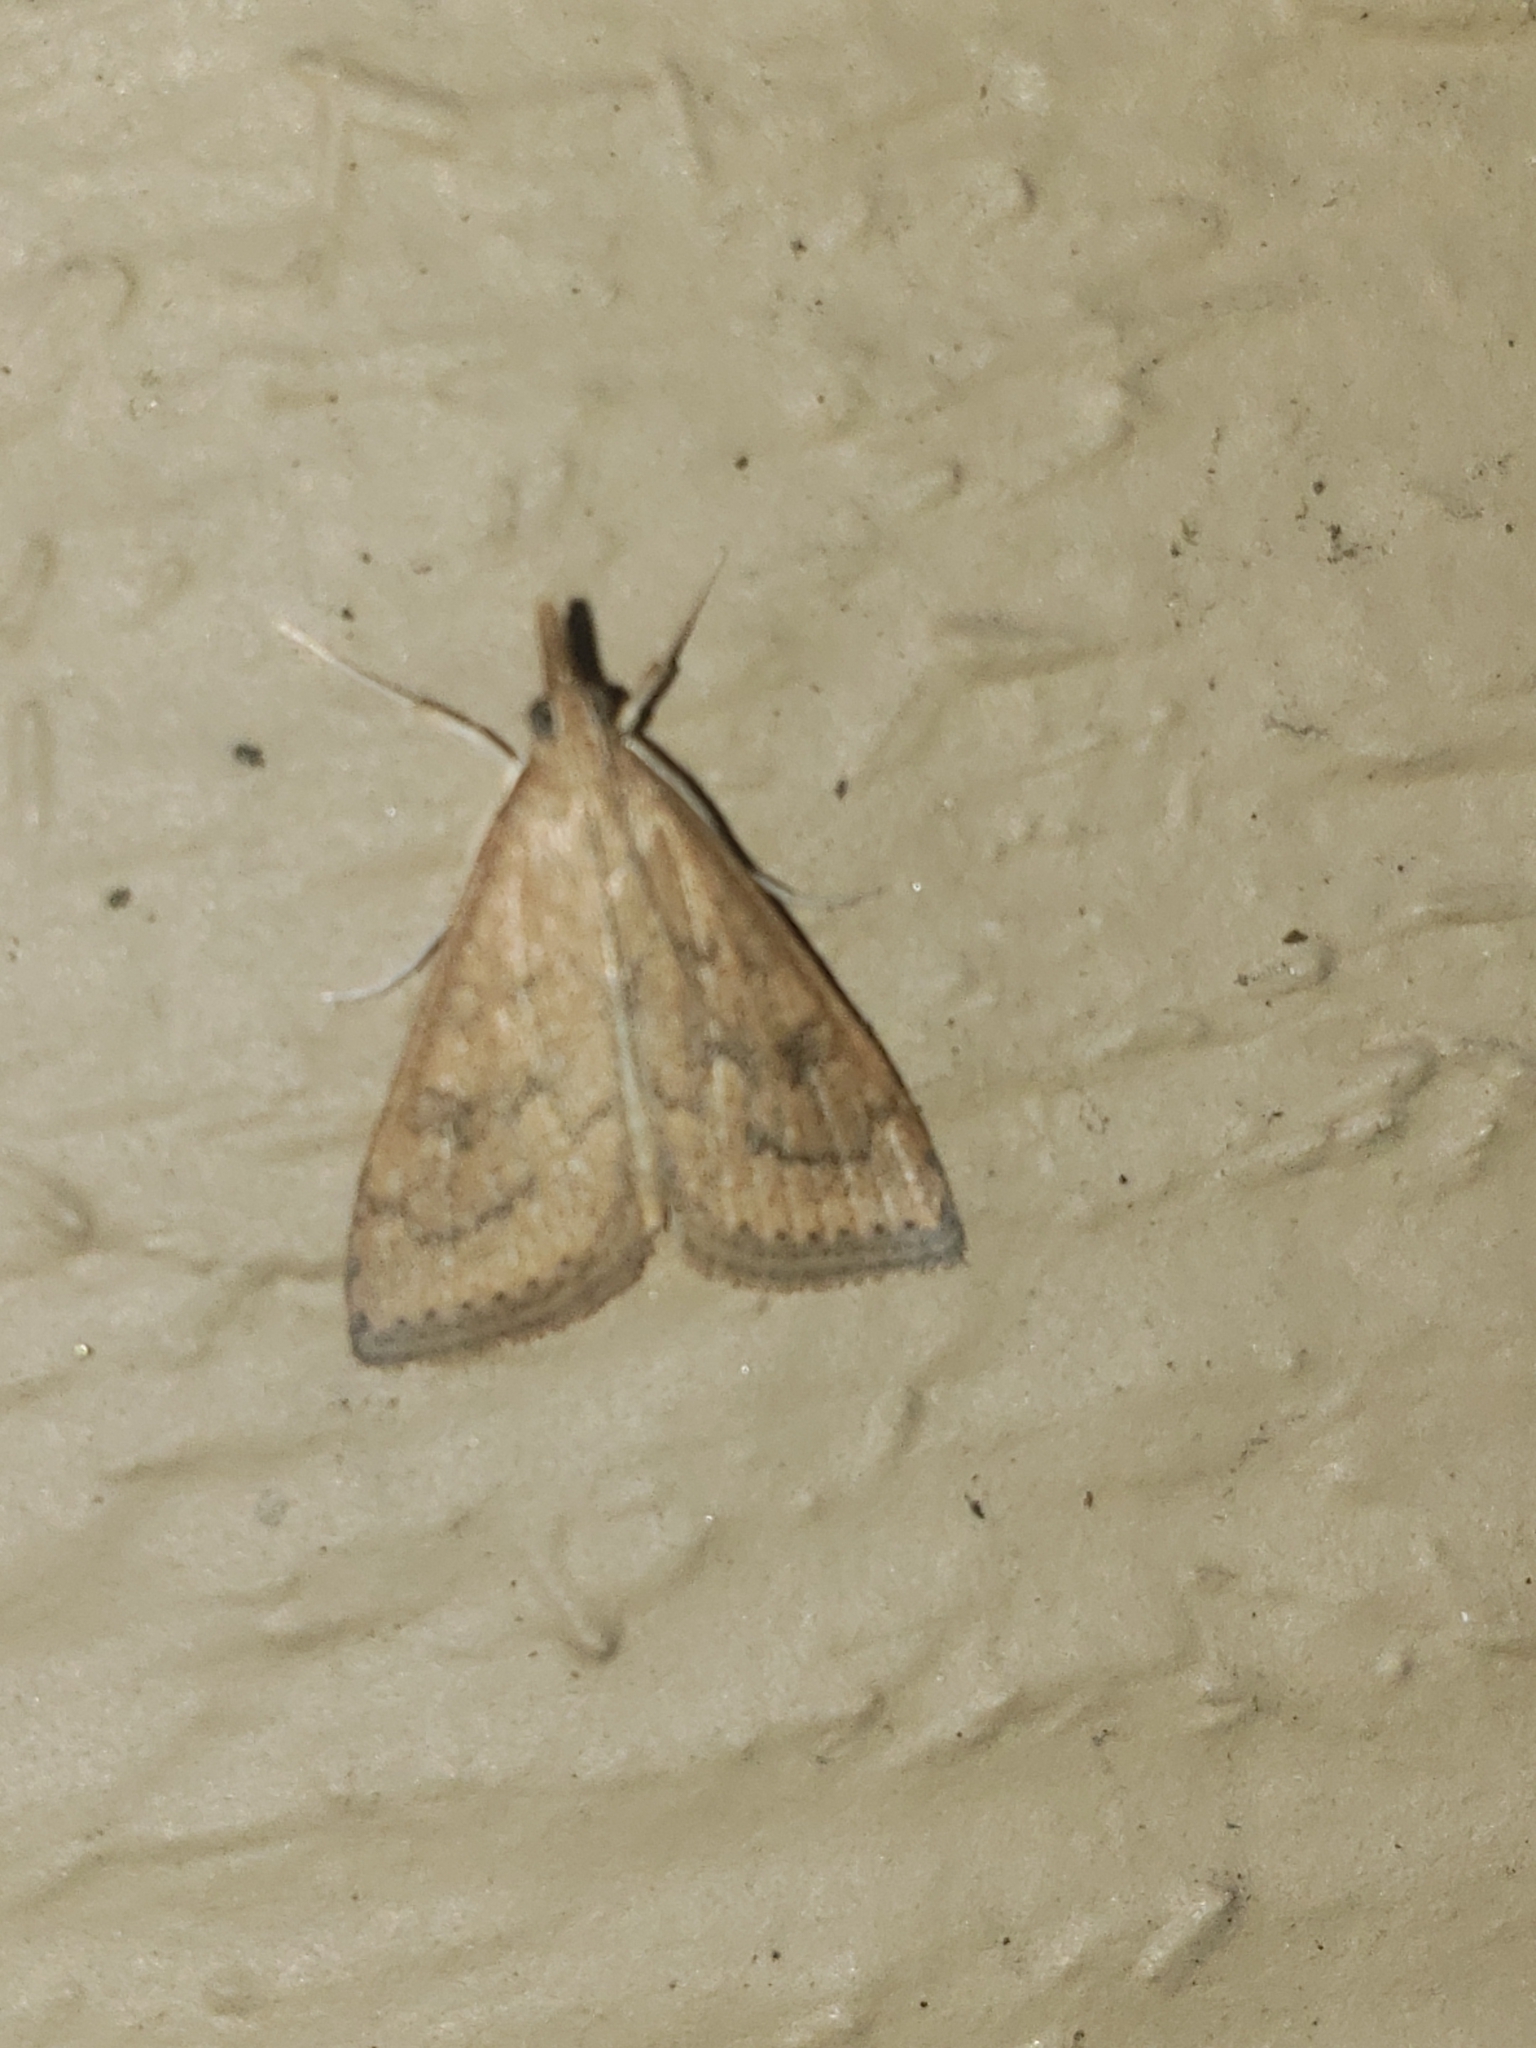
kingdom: Animalia
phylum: Arthropoda
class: Insecta
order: Lepidoptera
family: Crambidae
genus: Udea
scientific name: Udea rubigalis
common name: Celery leaftier moth
